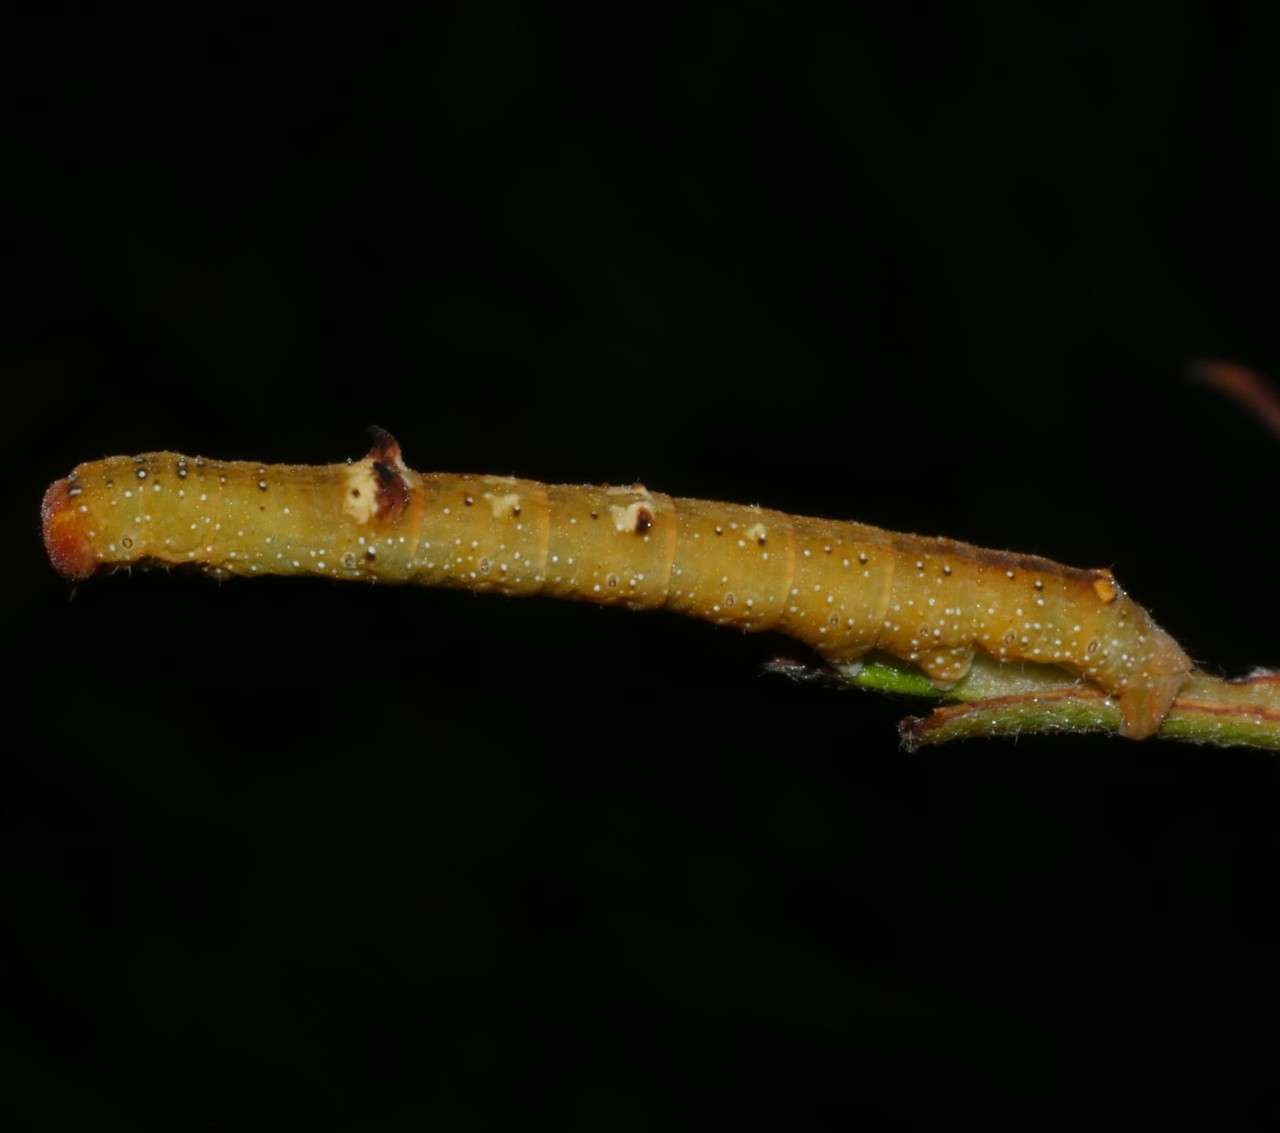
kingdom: Animalia
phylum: Arthropoda
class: Insecta
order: Lepidoptera
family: Geometridae
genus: Oenochroma
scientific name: Oenochroma vinaria
